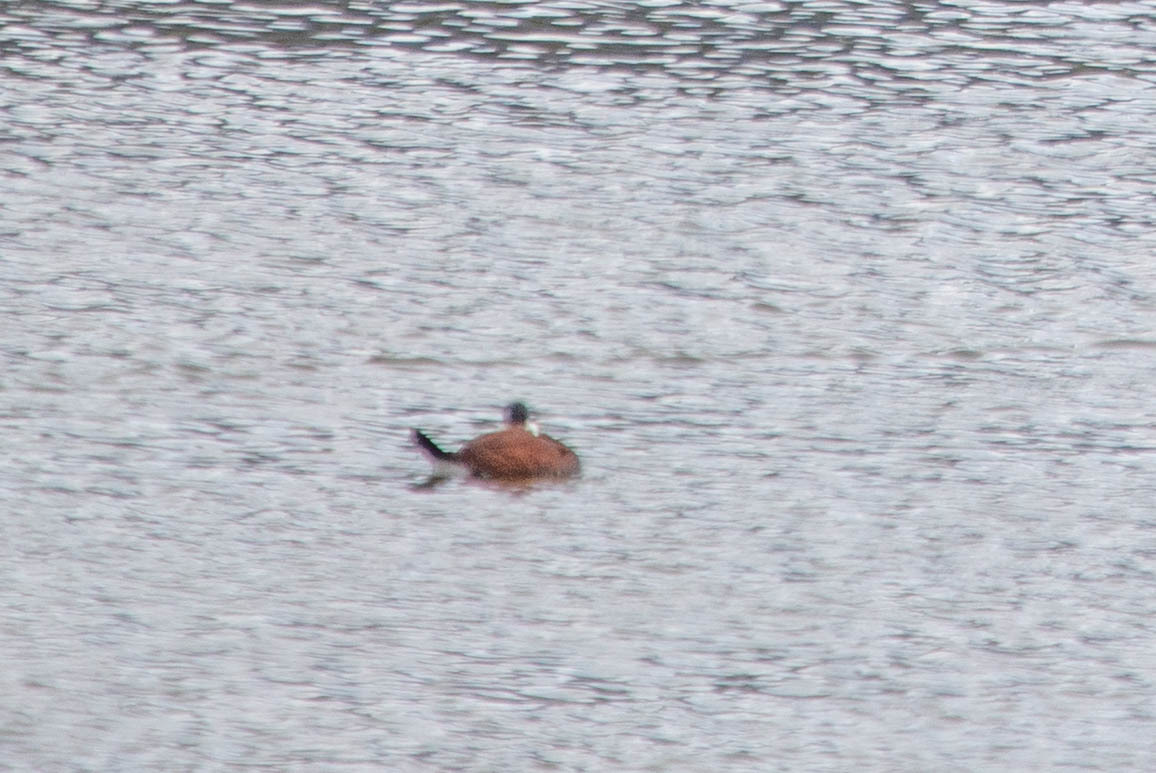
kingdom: Animalia
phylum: Chordata
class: Aves
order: Anseriformes
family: Anatidae
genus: Oxyura
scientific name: Oxyura jamaicensis
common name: Ruddy duck
